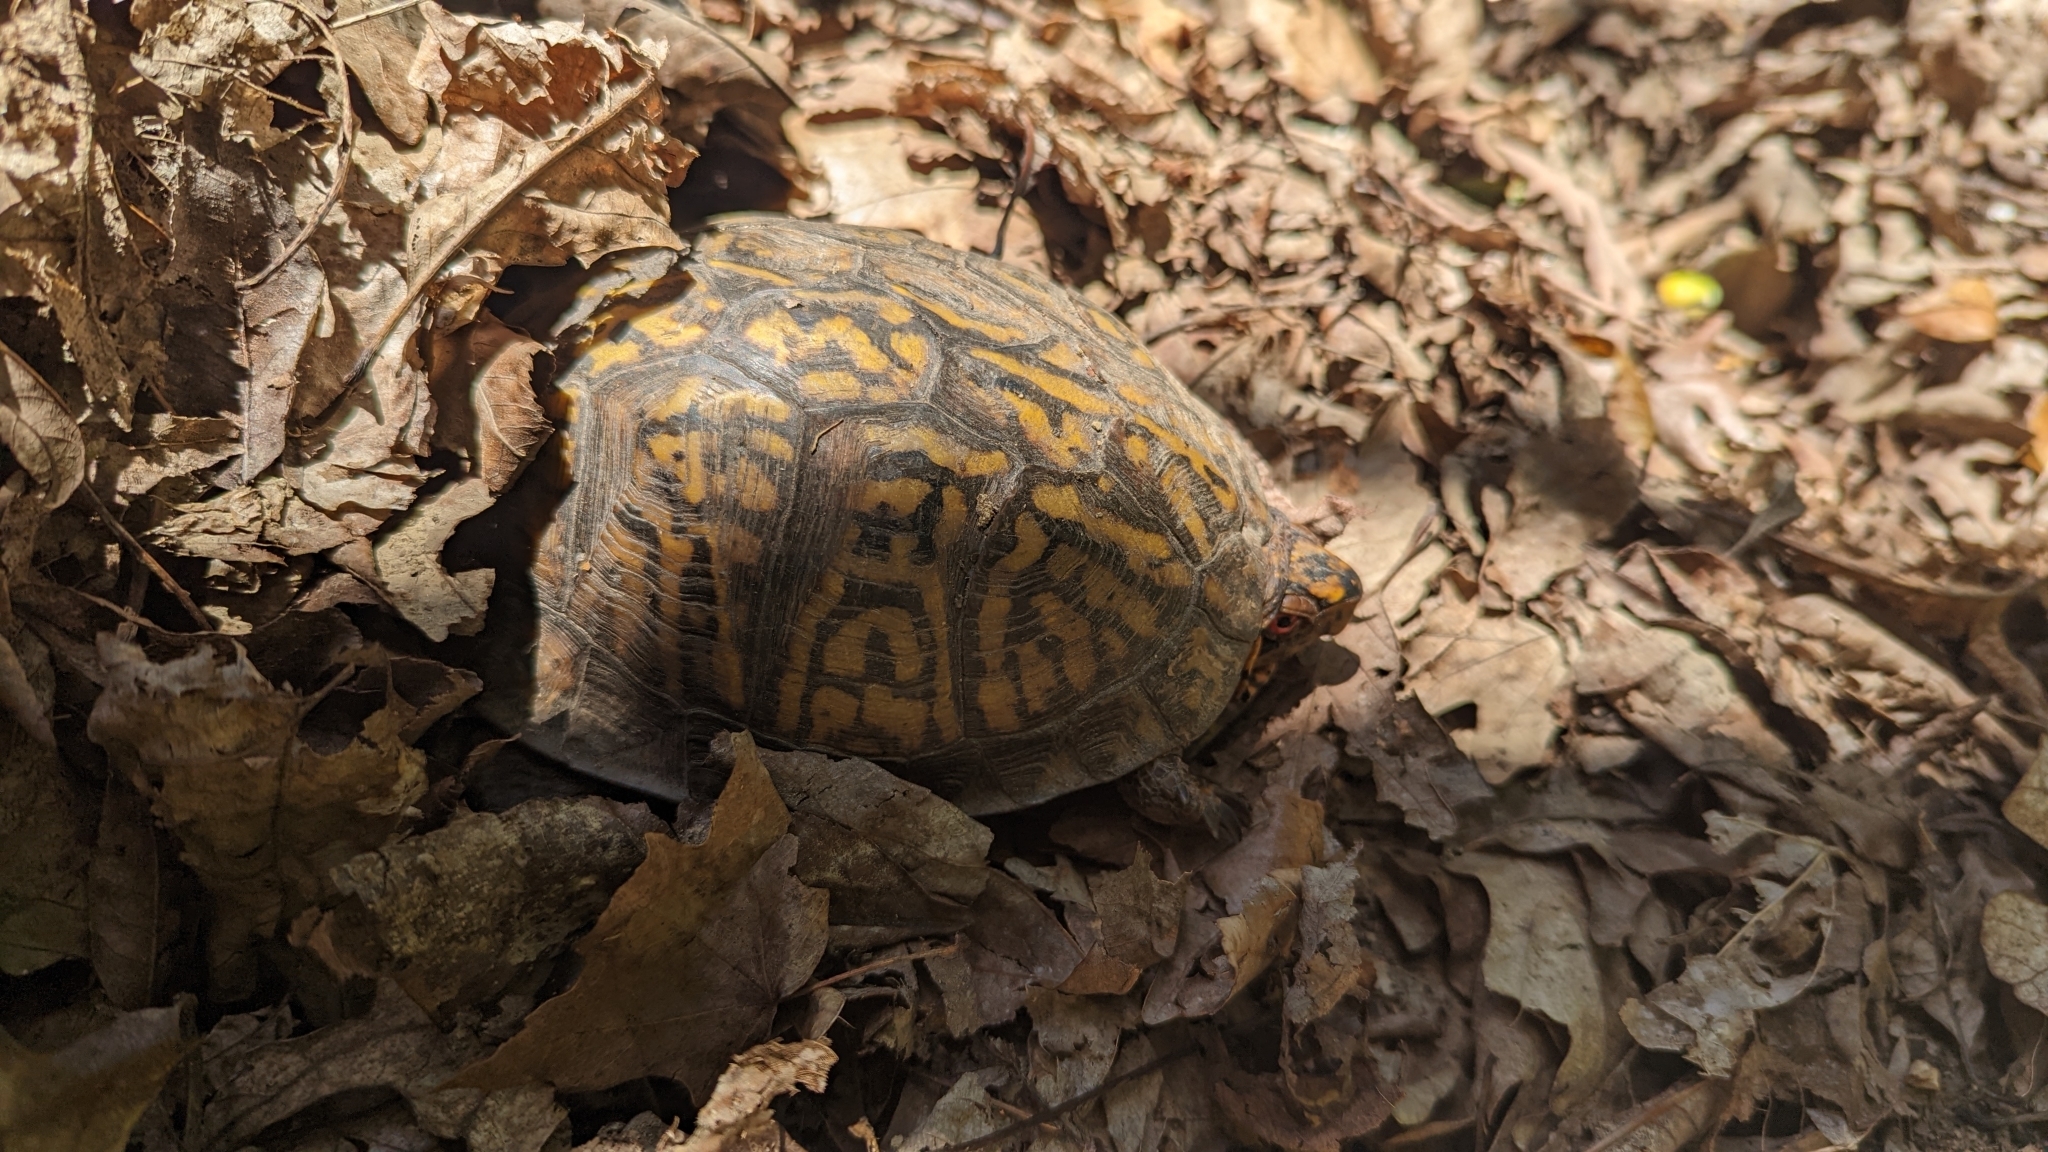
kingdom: Animalia
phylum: Chordata
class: Testudines
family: Emydidae
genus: Terrapene
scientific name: Terrapene carolina
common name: Common box turtle
